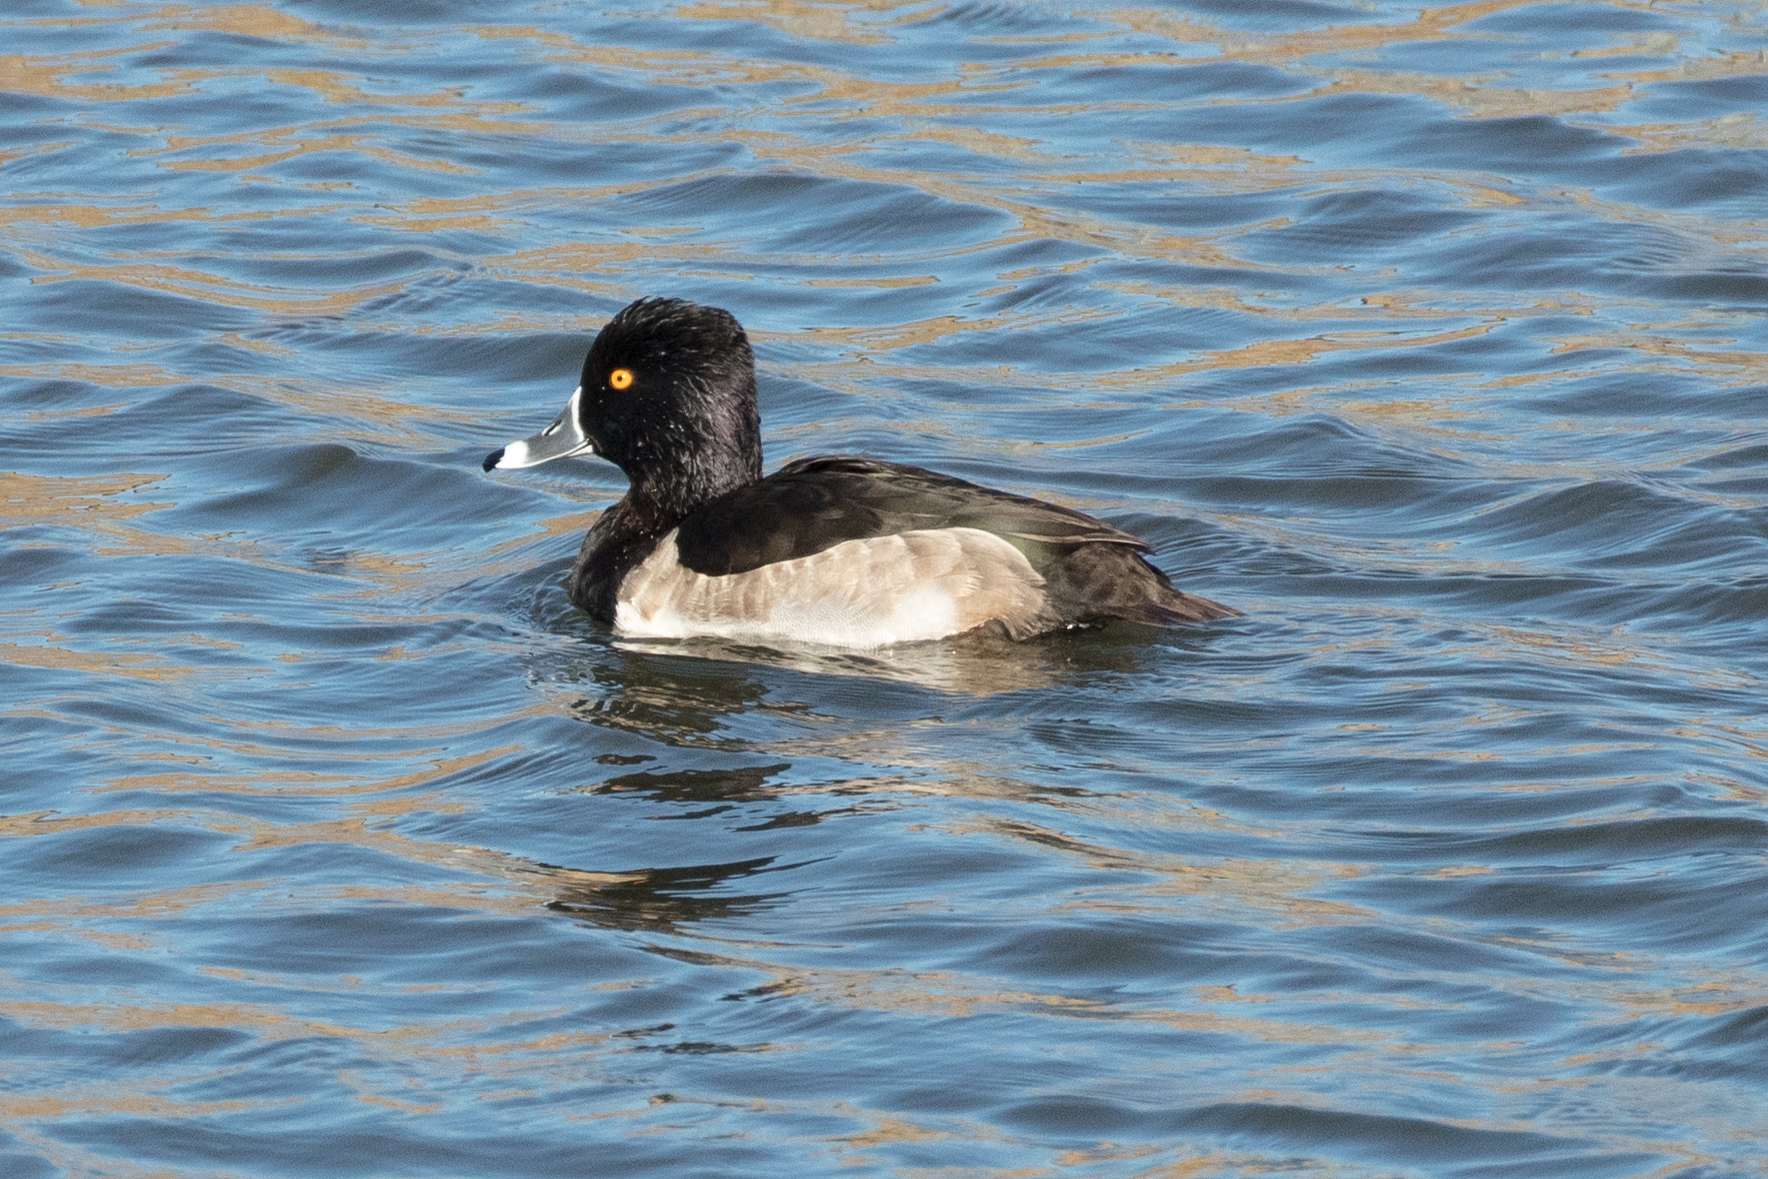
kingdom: Animalia
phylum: Chordata
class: Aves
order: Anseriformes
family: Anatidae
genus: Aythya
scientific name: Aythya collaris
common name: Ring-necked duck
